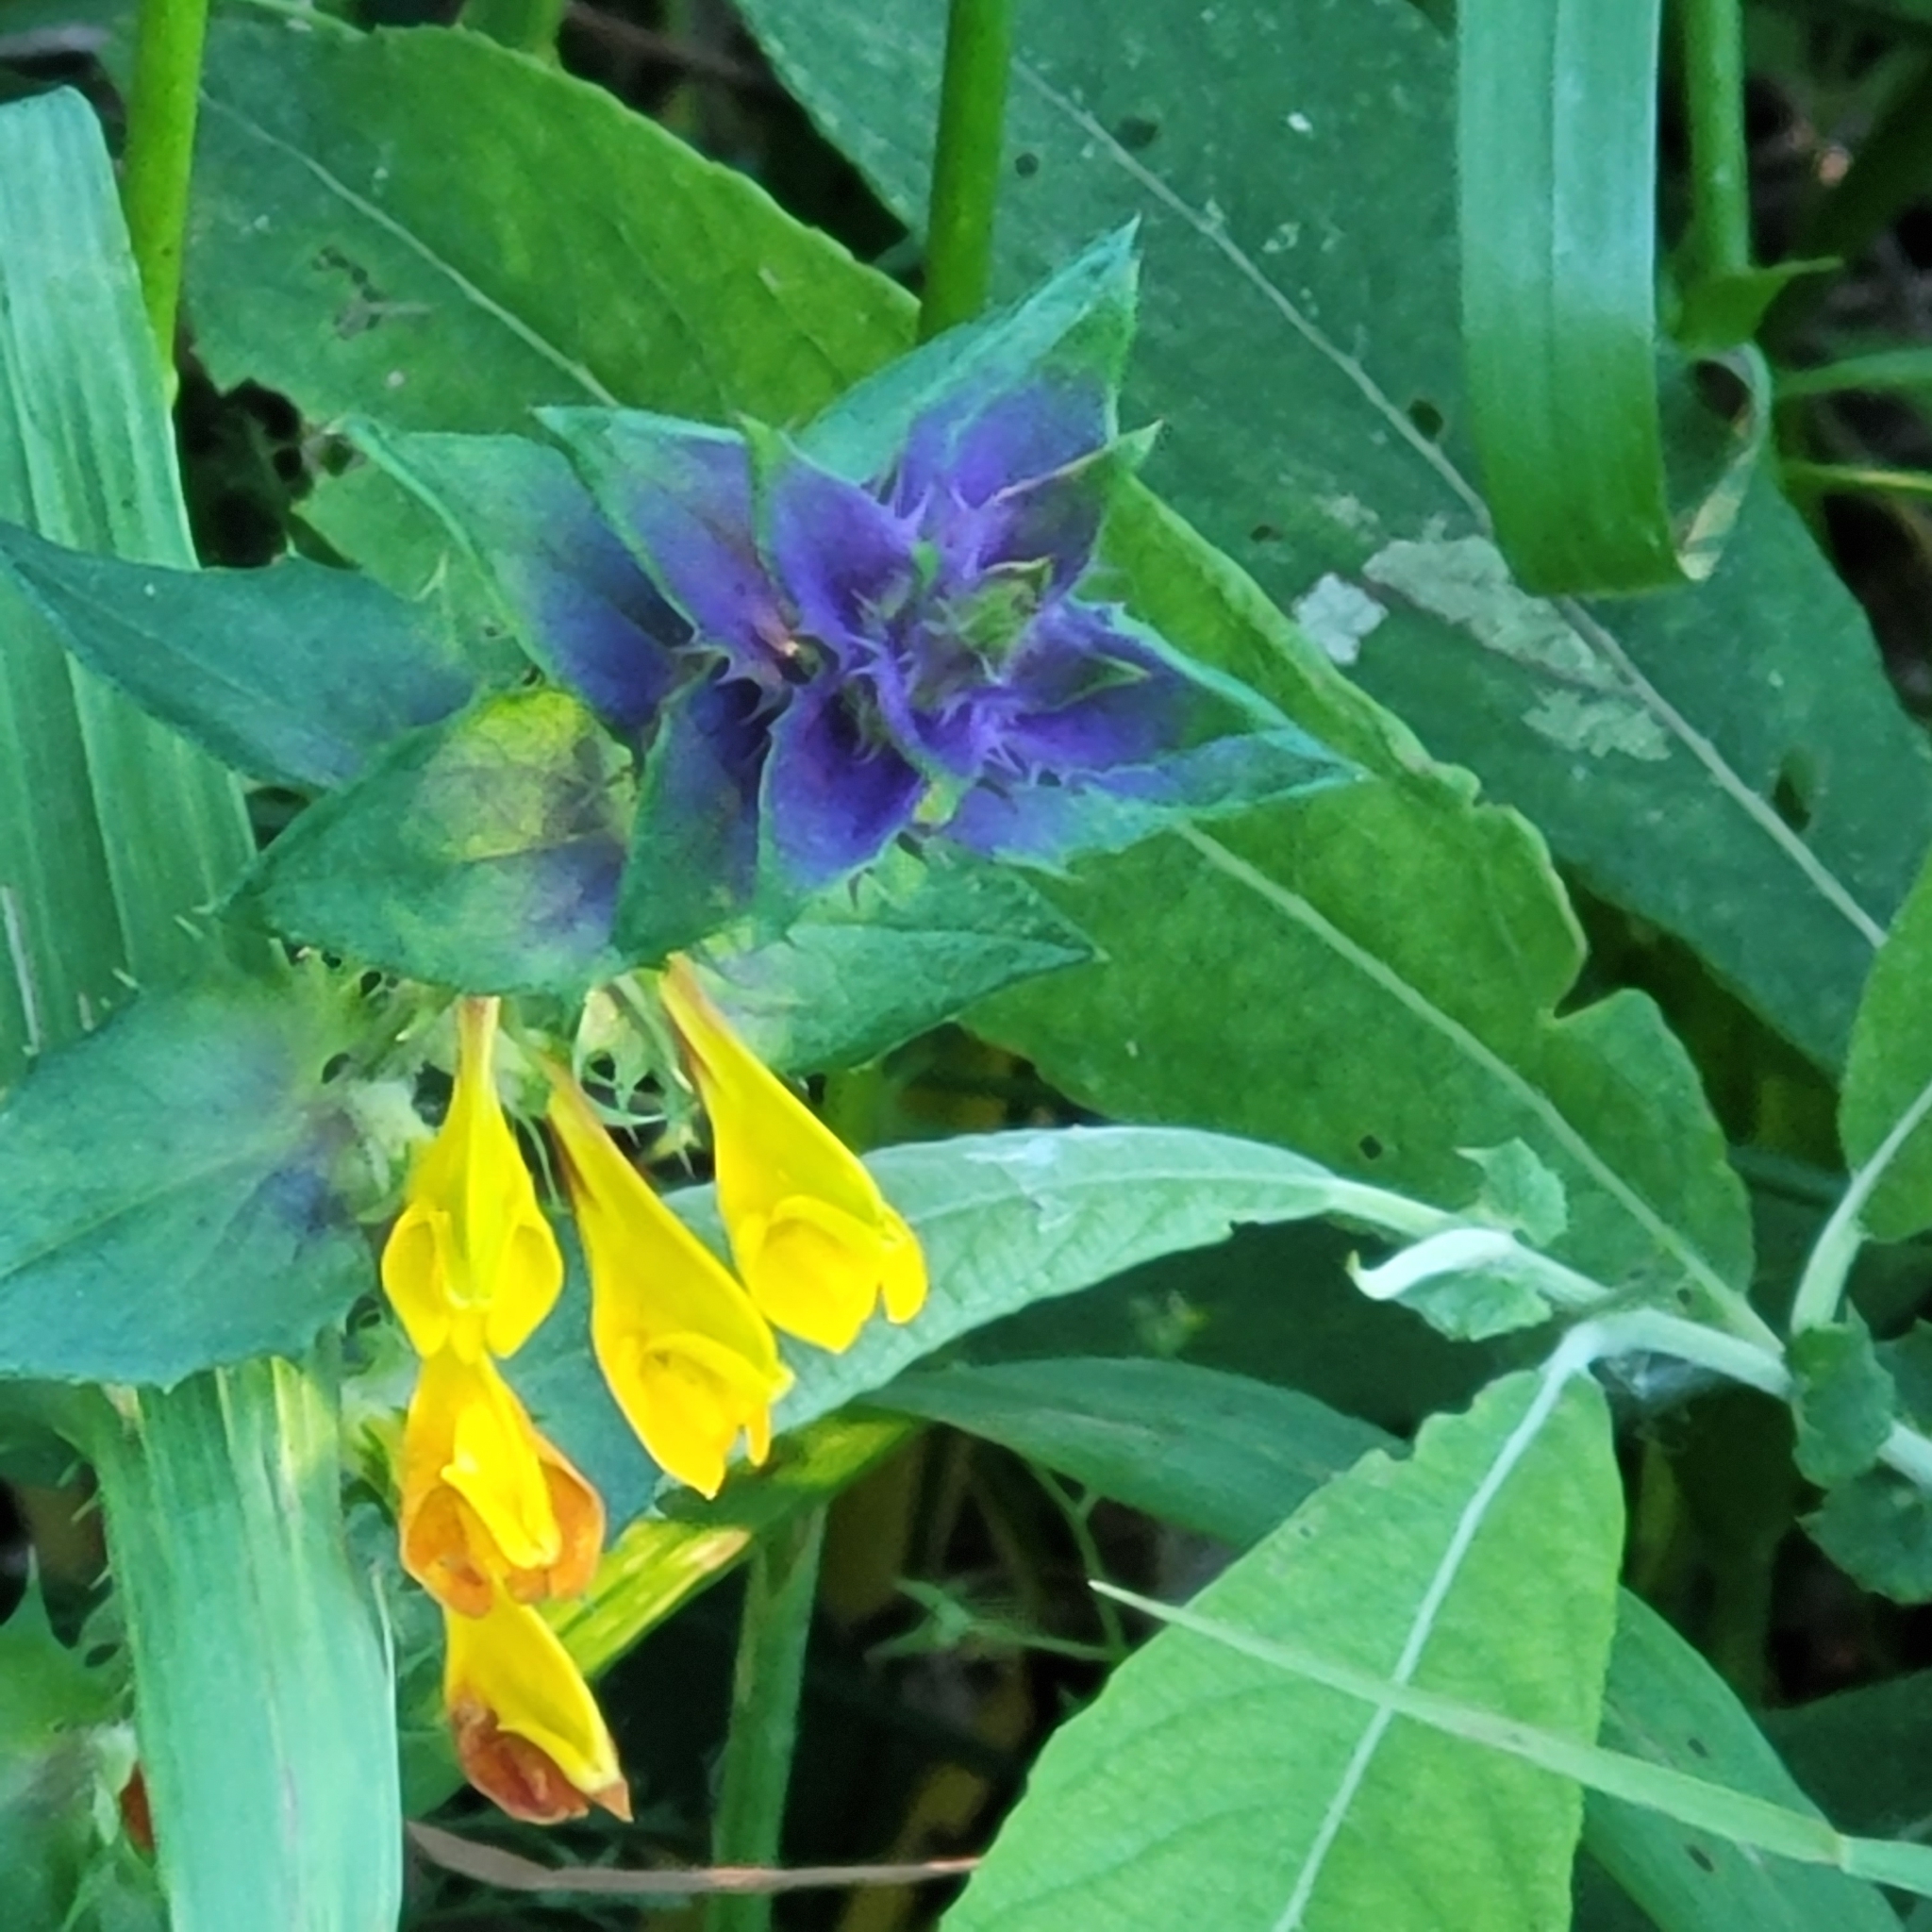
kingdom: Plantae
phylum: Tracheophyta
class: Magnoliopsida
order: Lamiales
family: Orobanchaceae
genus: Melampyrum
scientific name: Melampyrum nemorosum
